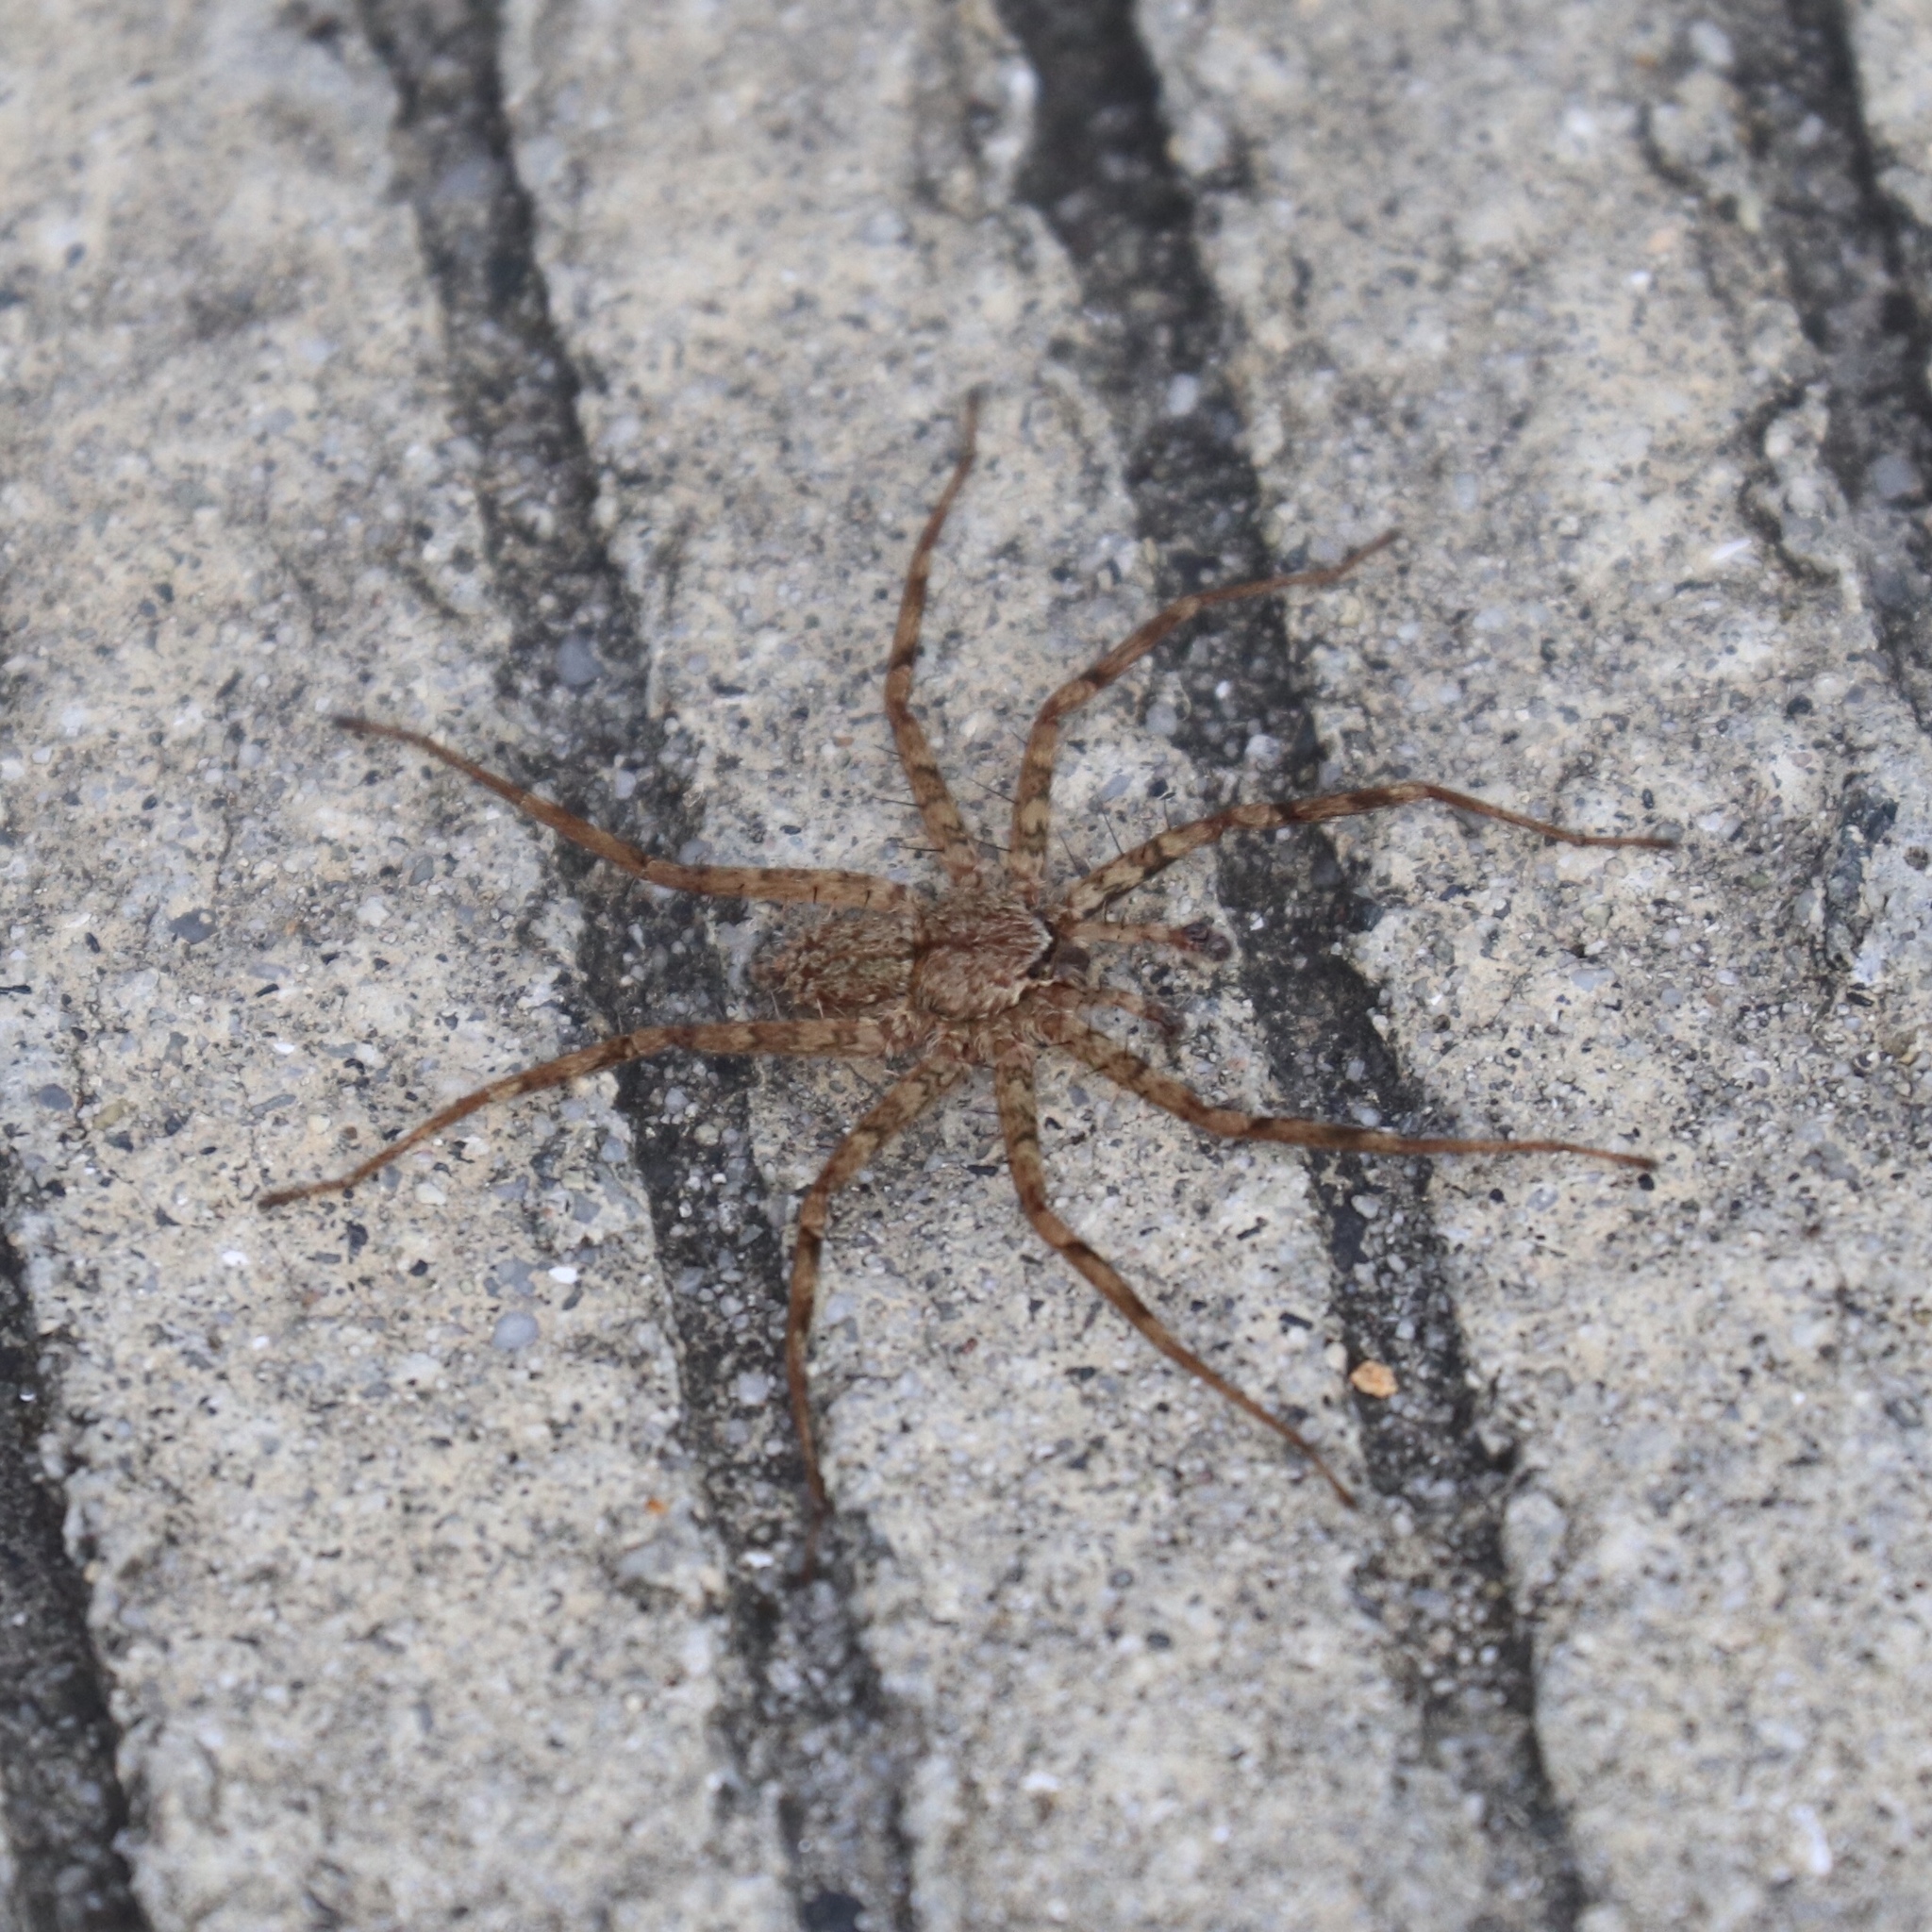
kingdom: Animalia
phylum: Arthropoda
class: Arachnida
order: Araneae
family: Selenopidae
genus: Selenops
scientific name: Selenops banksi
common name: Wall crab spiders
